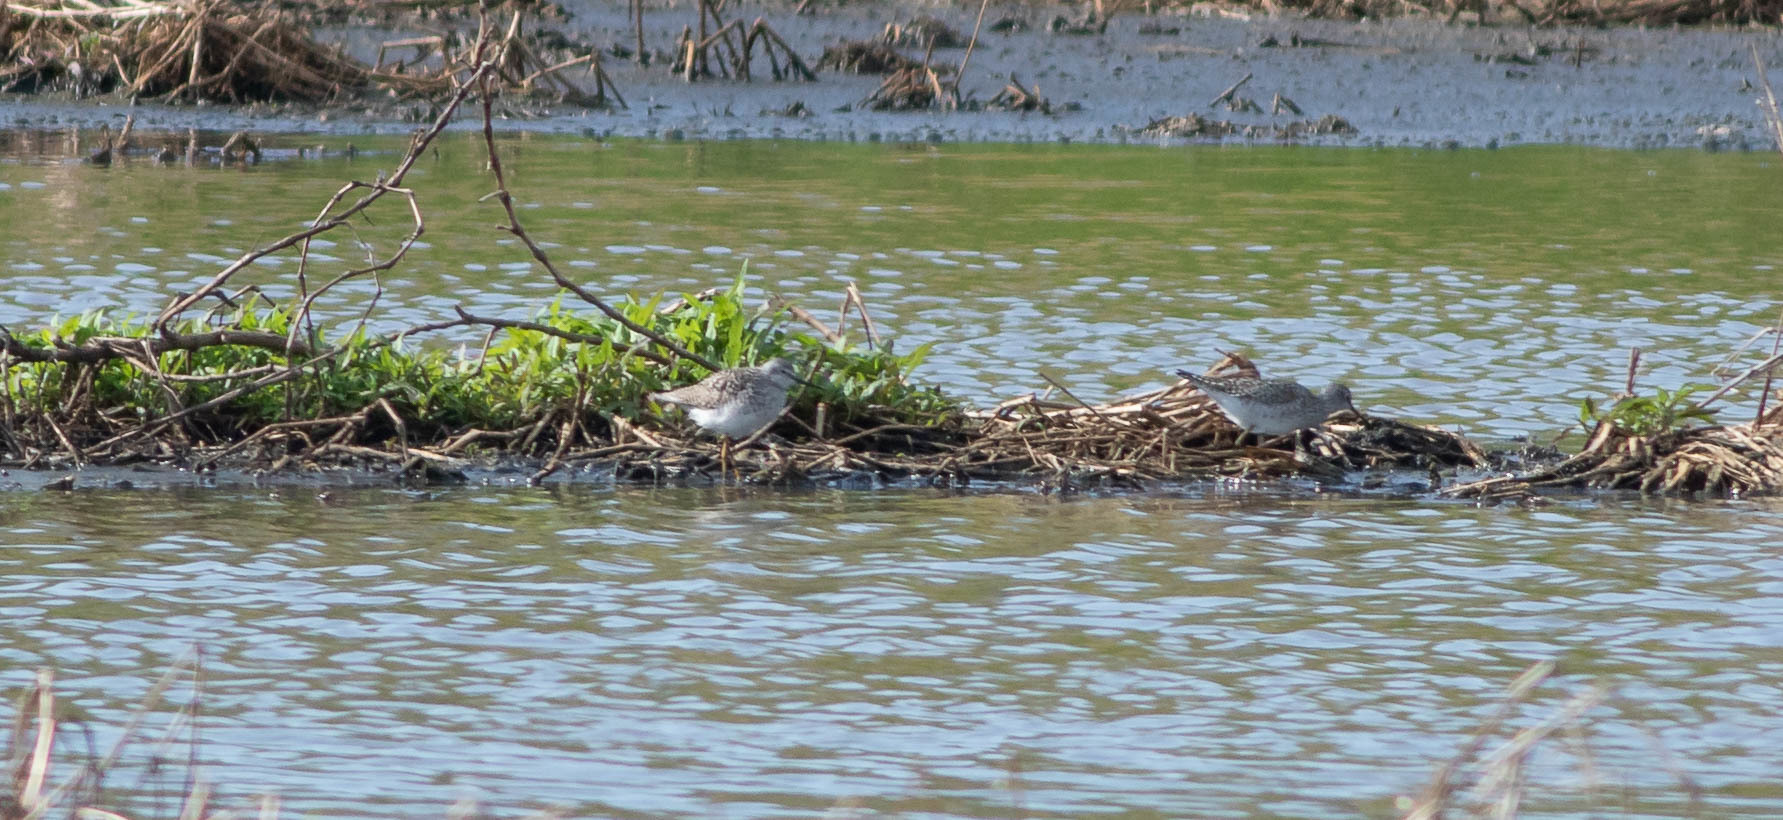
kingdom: Animalia
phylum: Chordata
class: Aves
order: Charadriiformes
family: Scolopacidae
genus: Tringa
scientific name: Tringa flavipes
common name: Lesser yellowlegs
